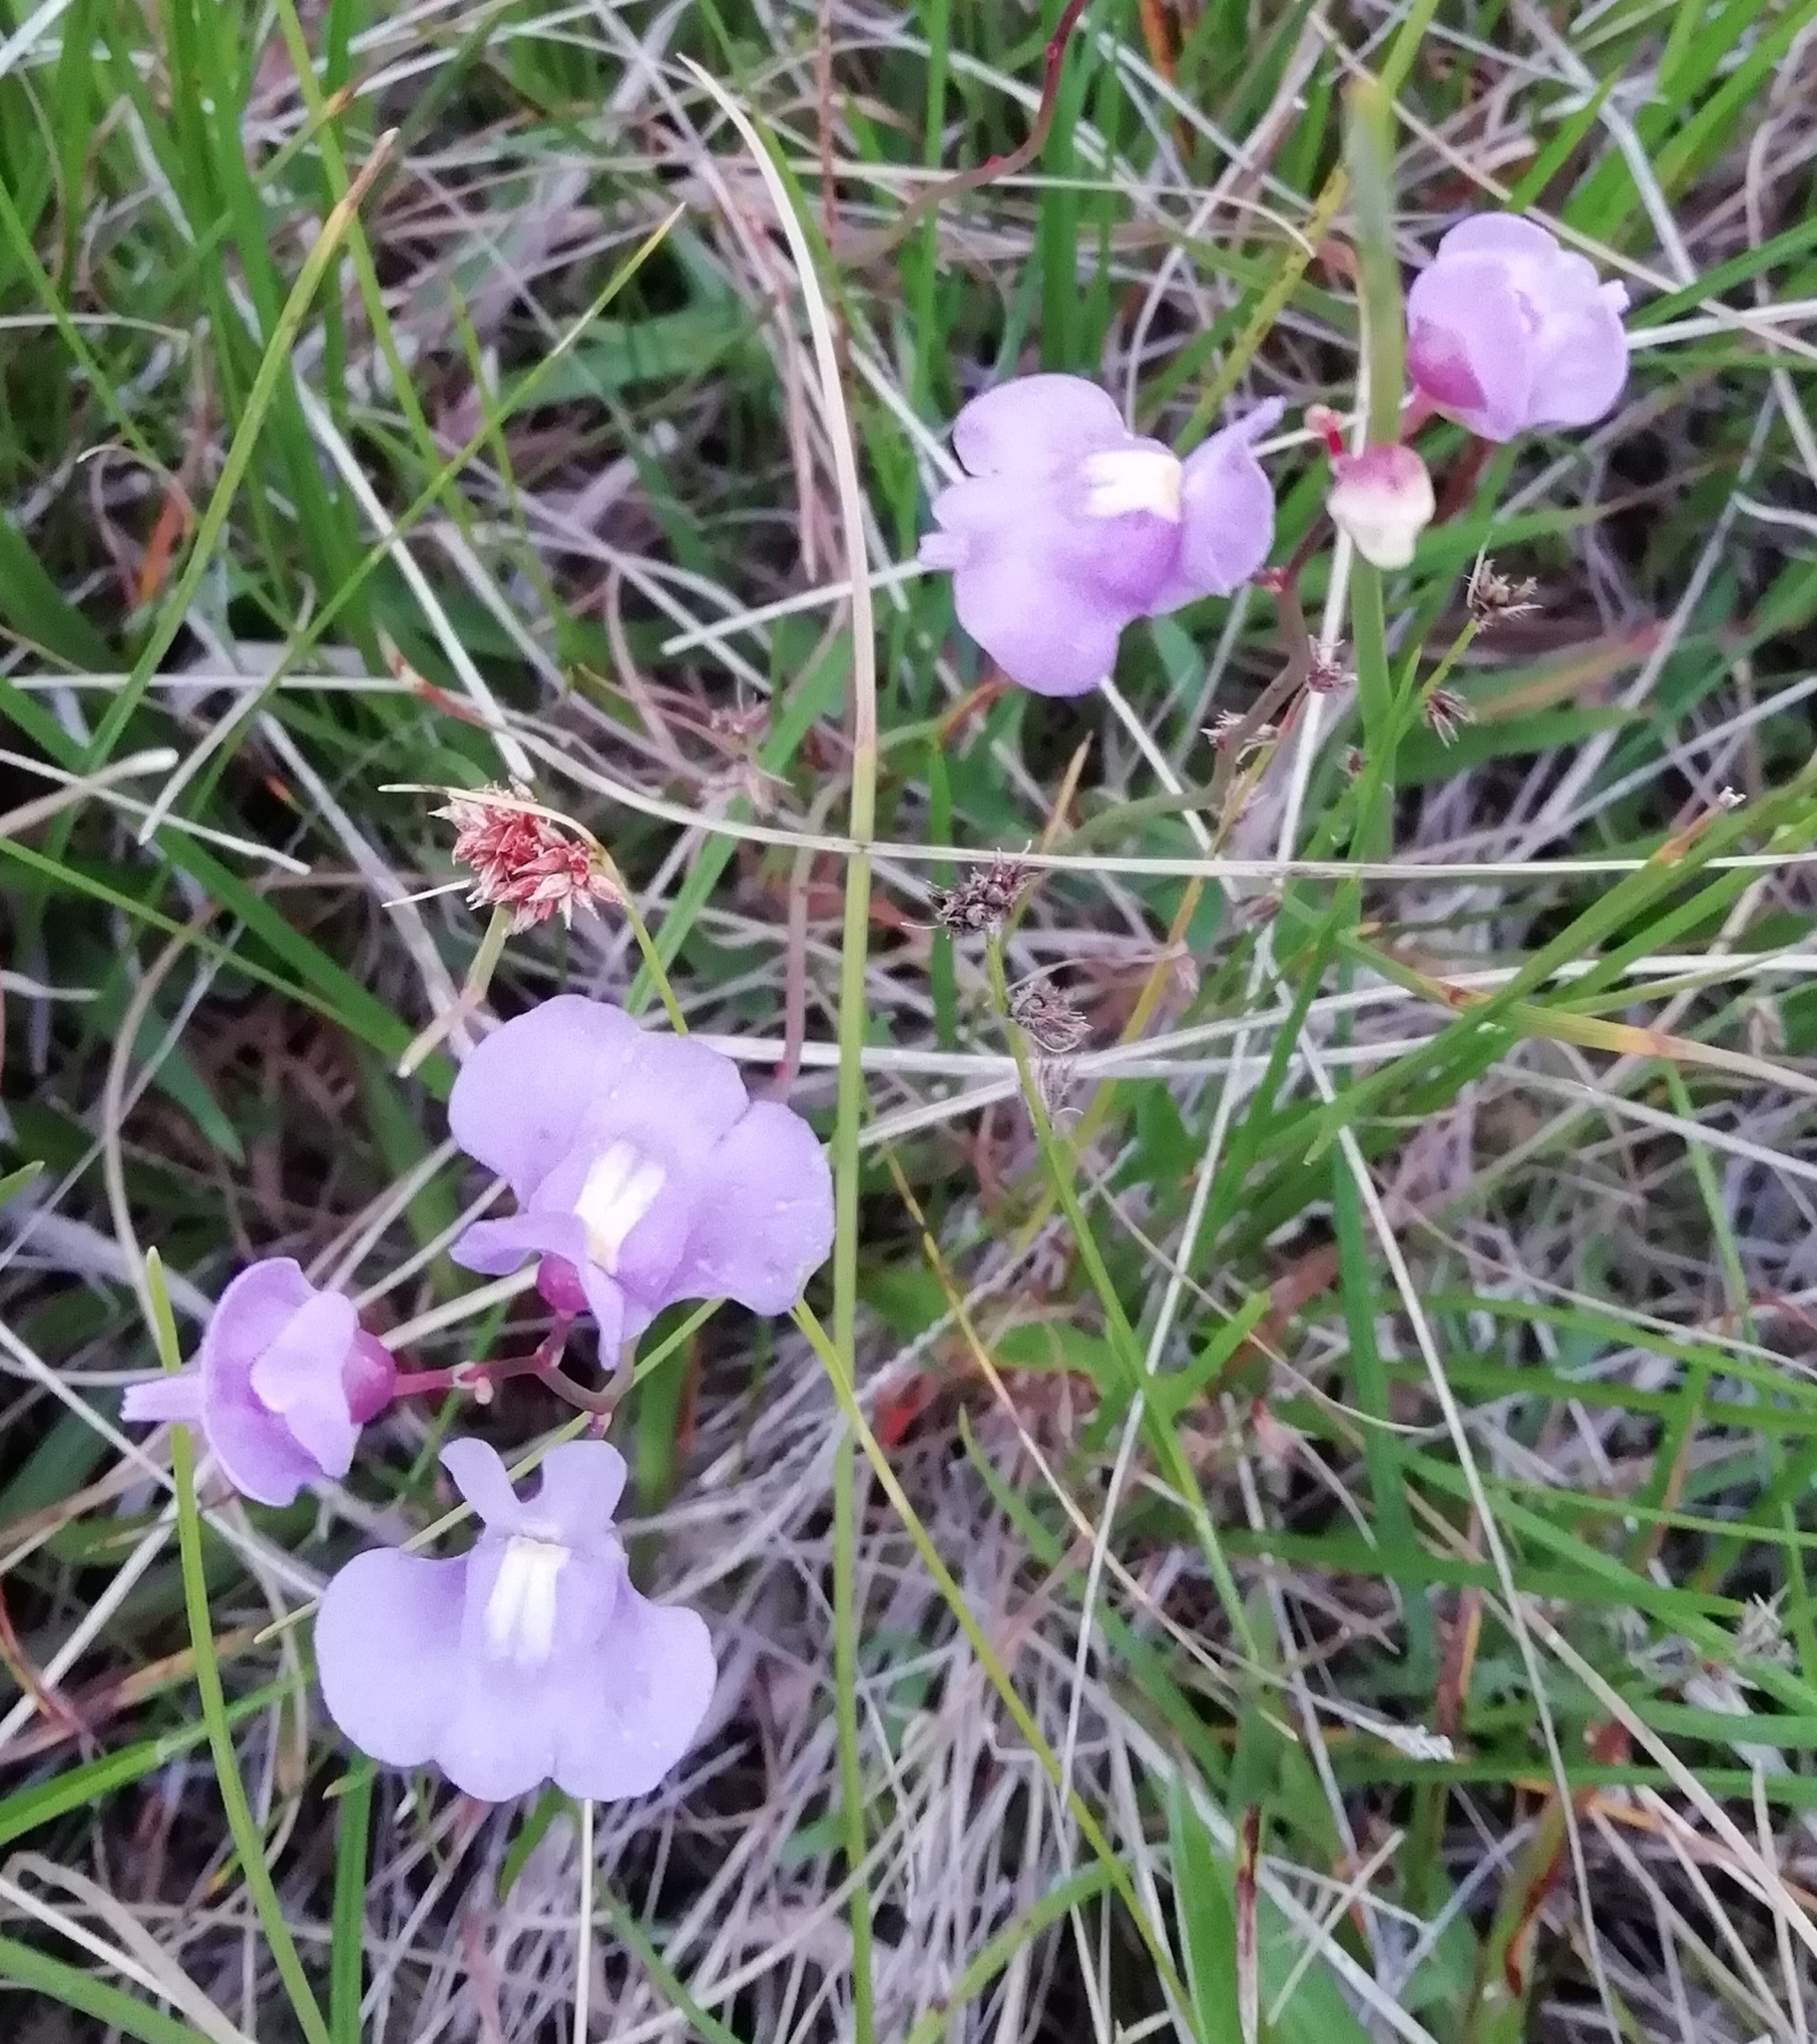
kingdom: Plantae
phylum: Tracheophyta
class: Magnoliopsida
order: Lamiales
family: Lentibulariaceae
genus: Utricularia
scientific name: Utricularia tricolor
